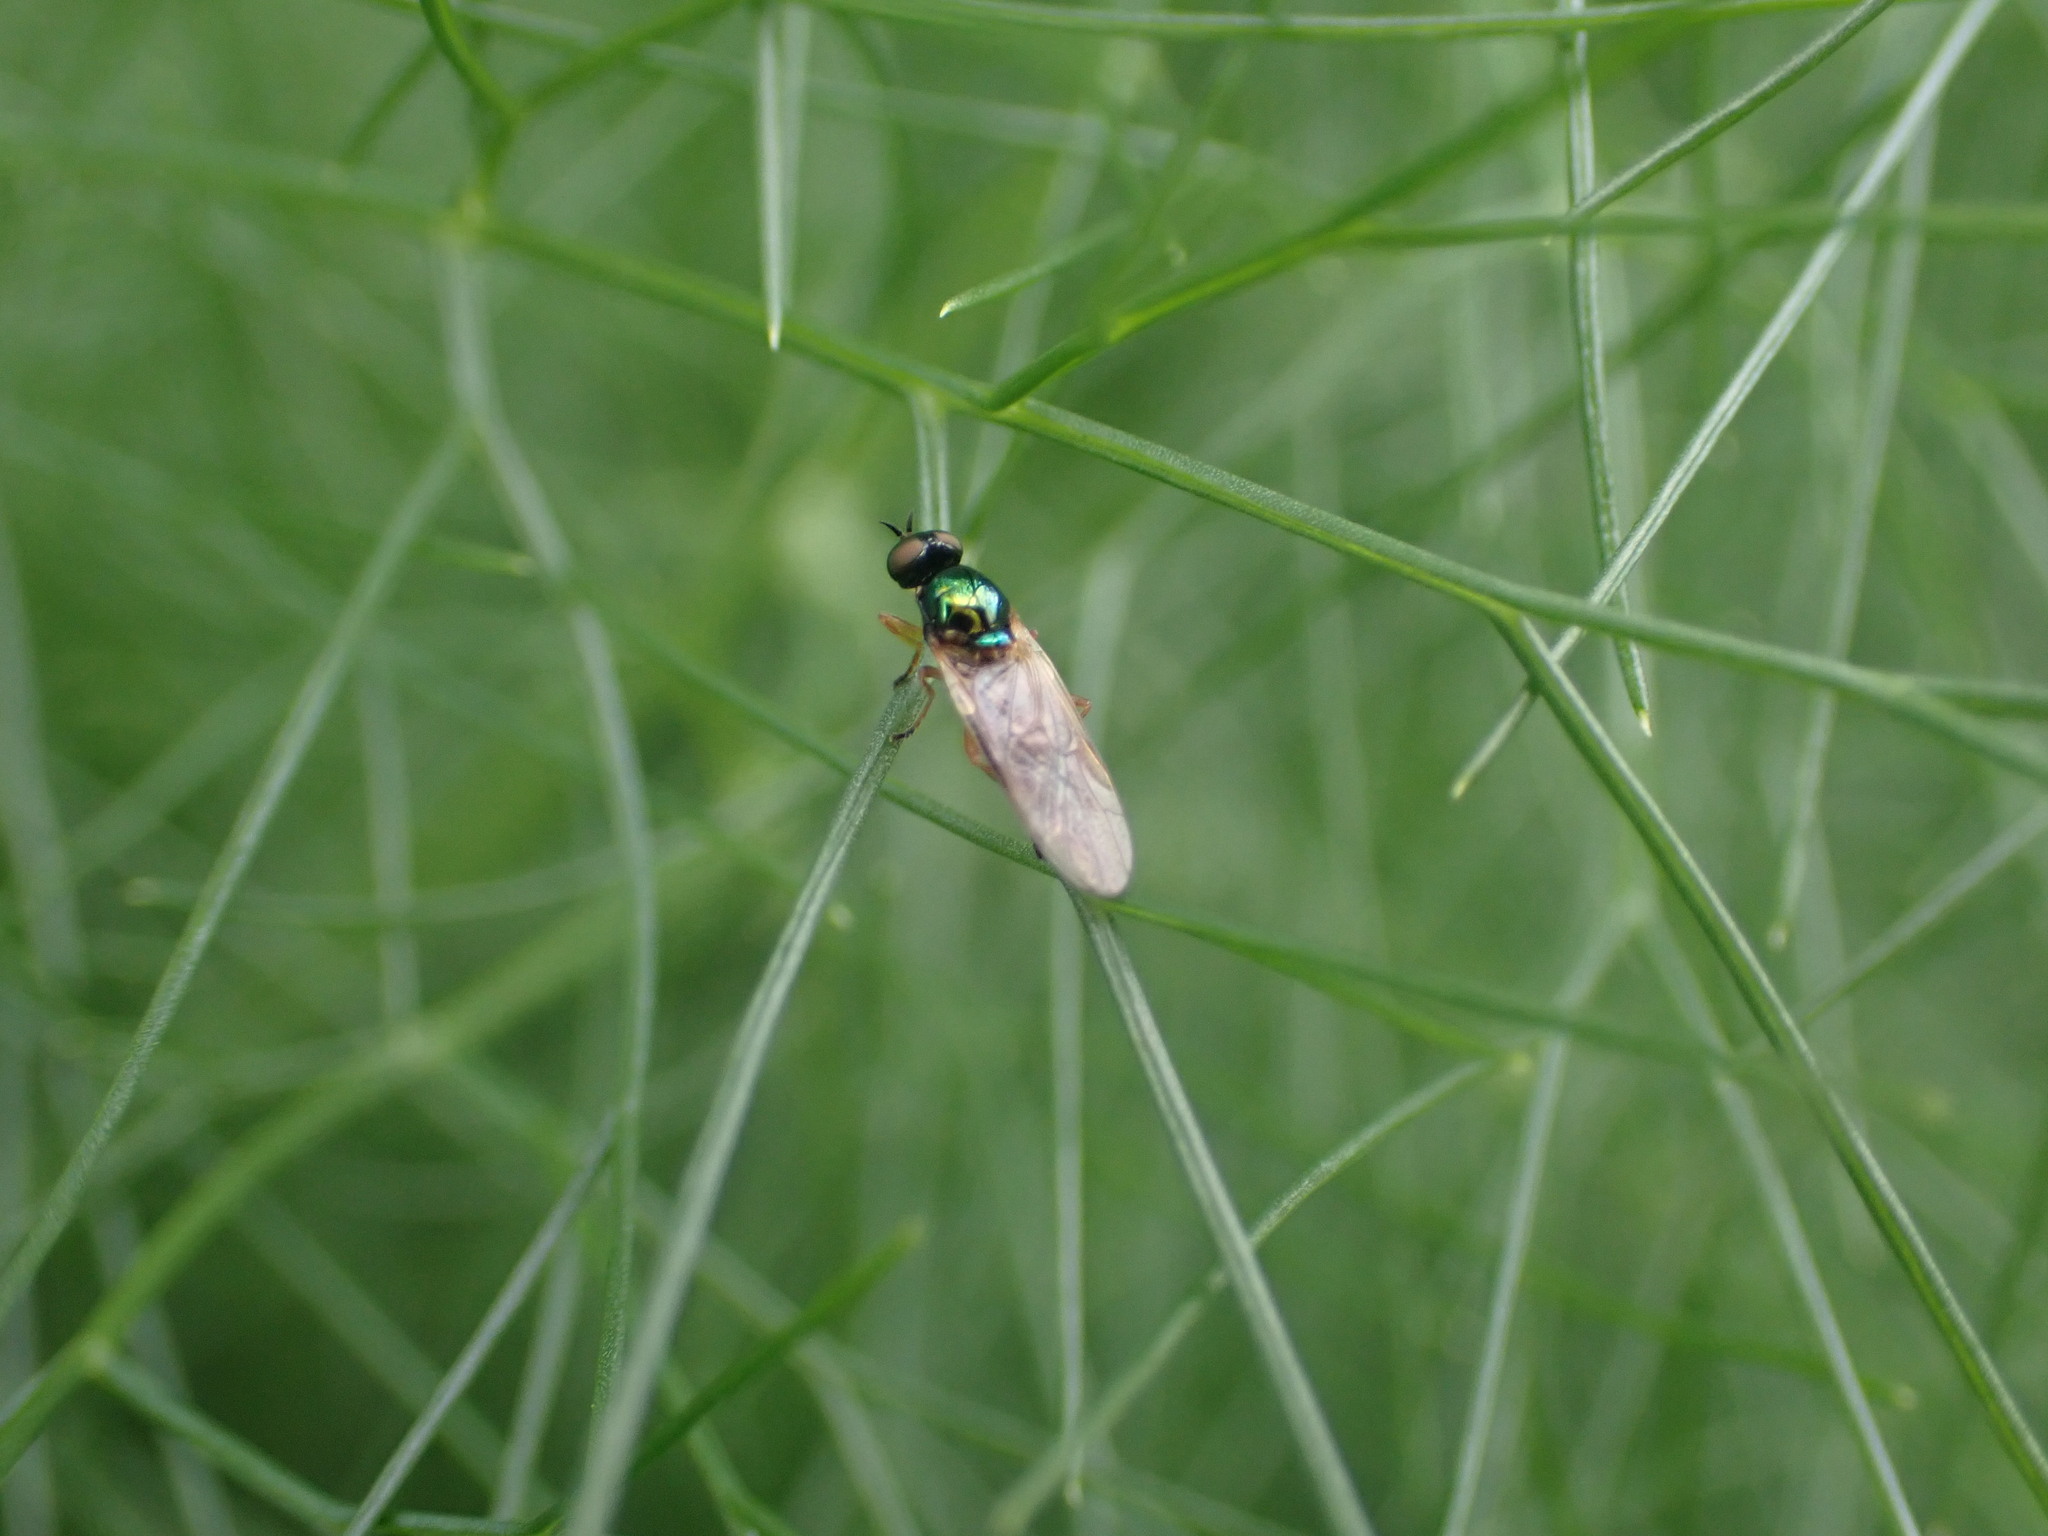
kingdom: Animalia
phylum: Arthropoda
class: Insecta
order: Diptera
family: Stratiomyidae
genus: Zealandoberis
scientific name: Zealandoberis lacuans
